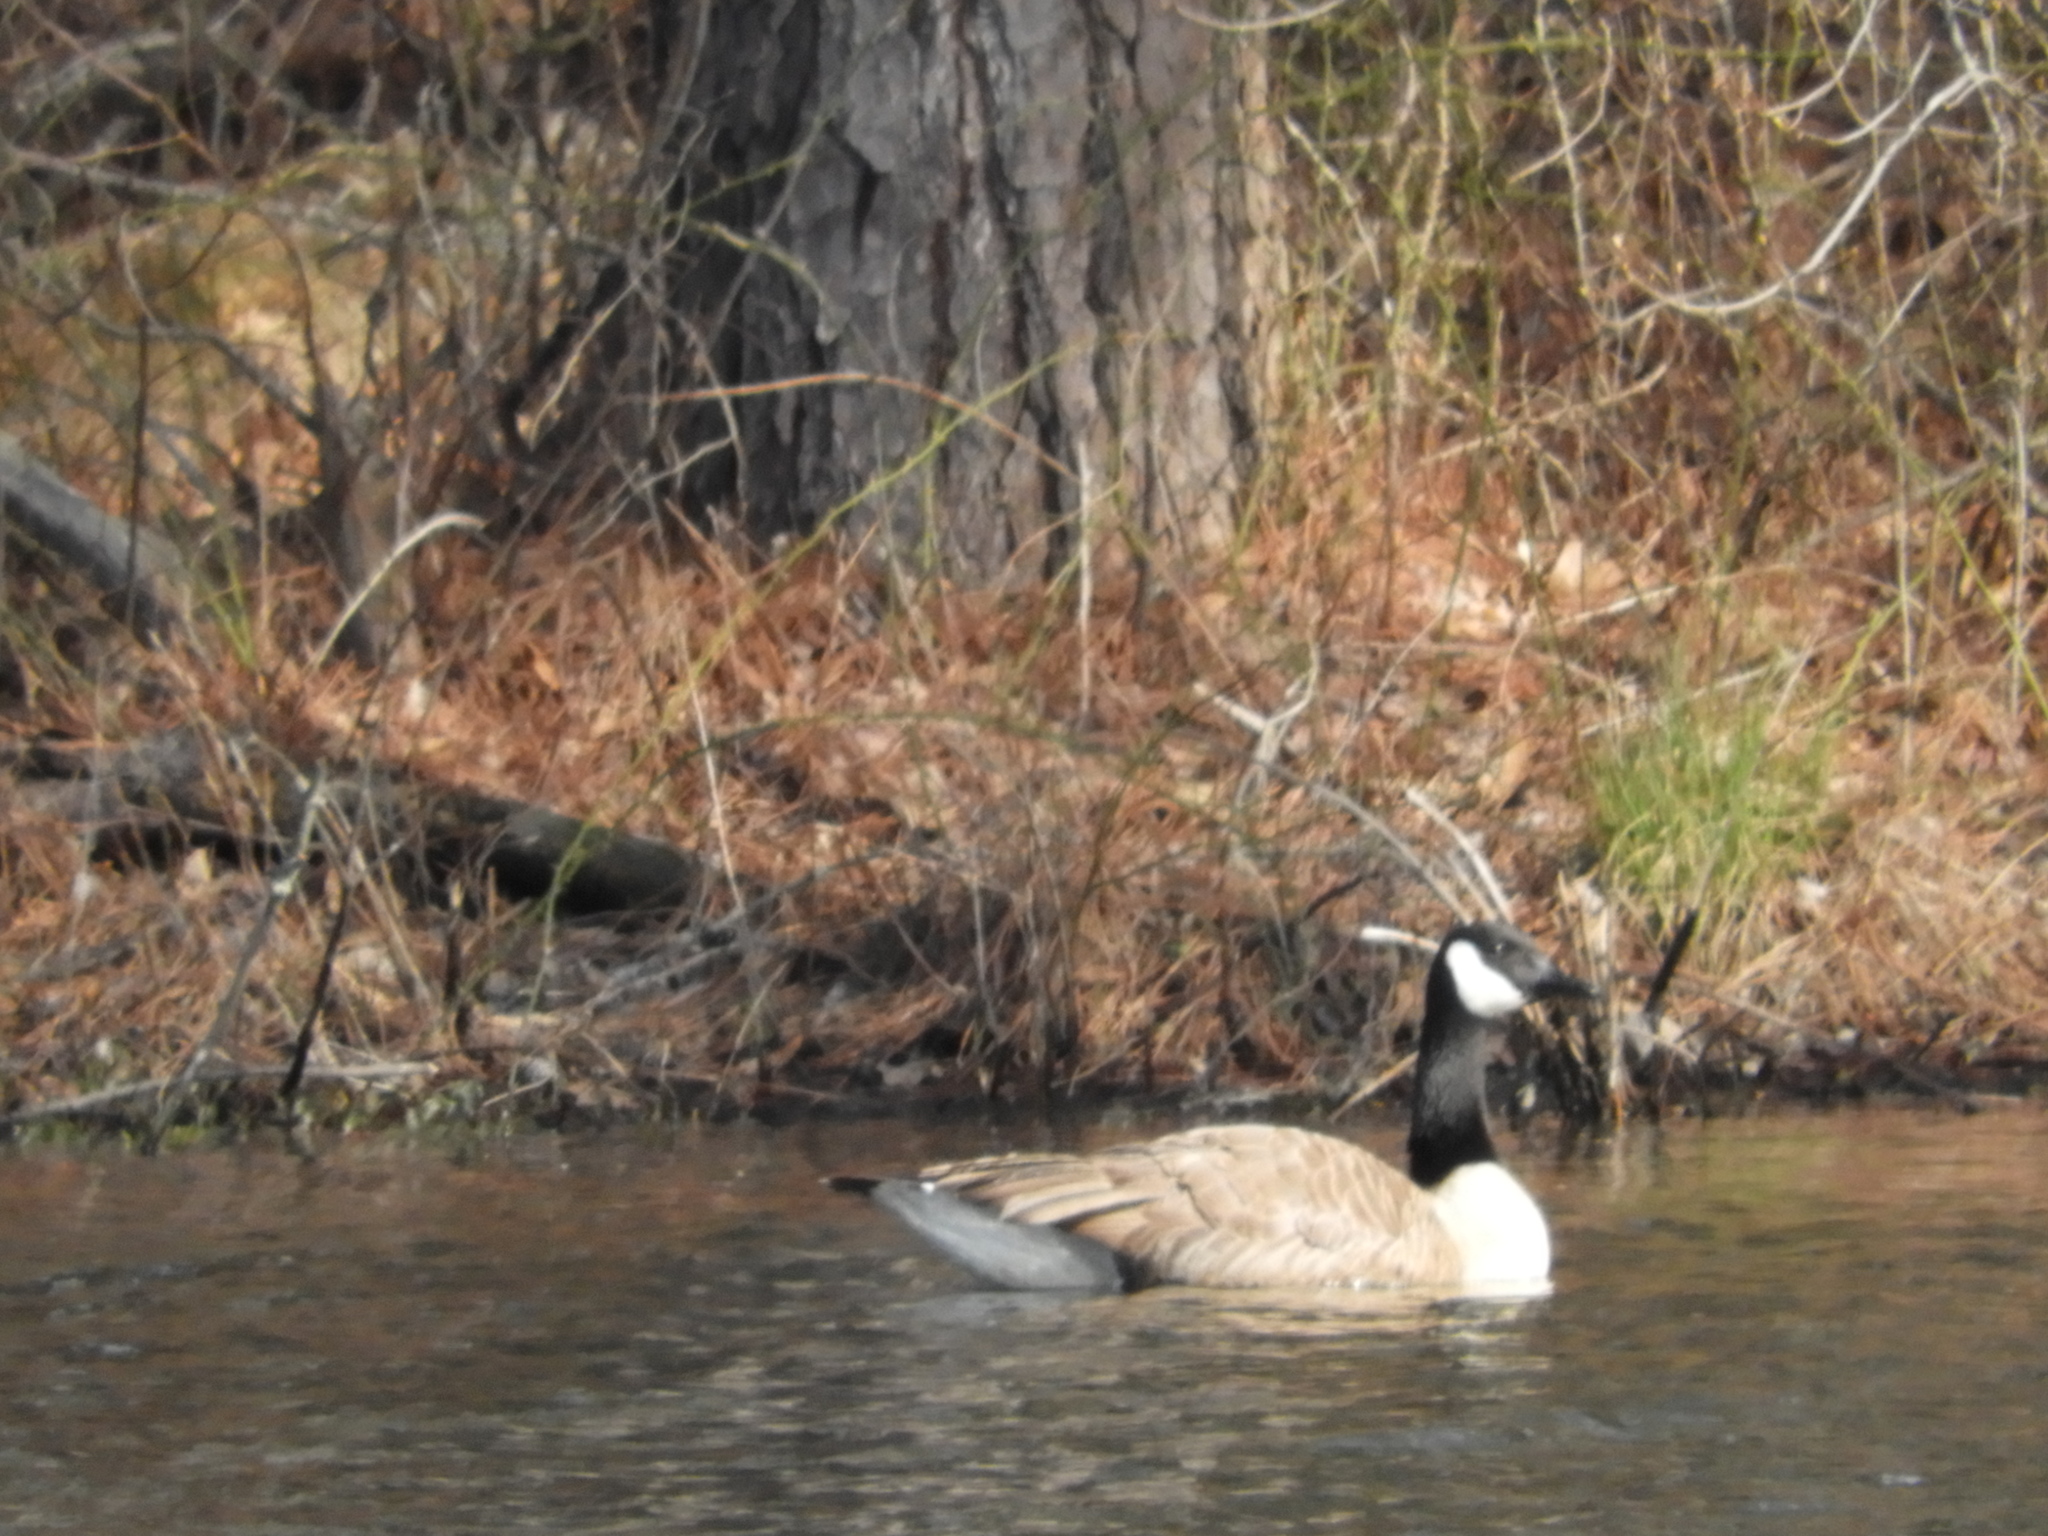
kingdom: Animalia
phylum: Chordata
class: Aves
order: Anseriformes
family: Anatidae
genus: Branta
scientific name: Branta canadensis
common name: Canada goose
